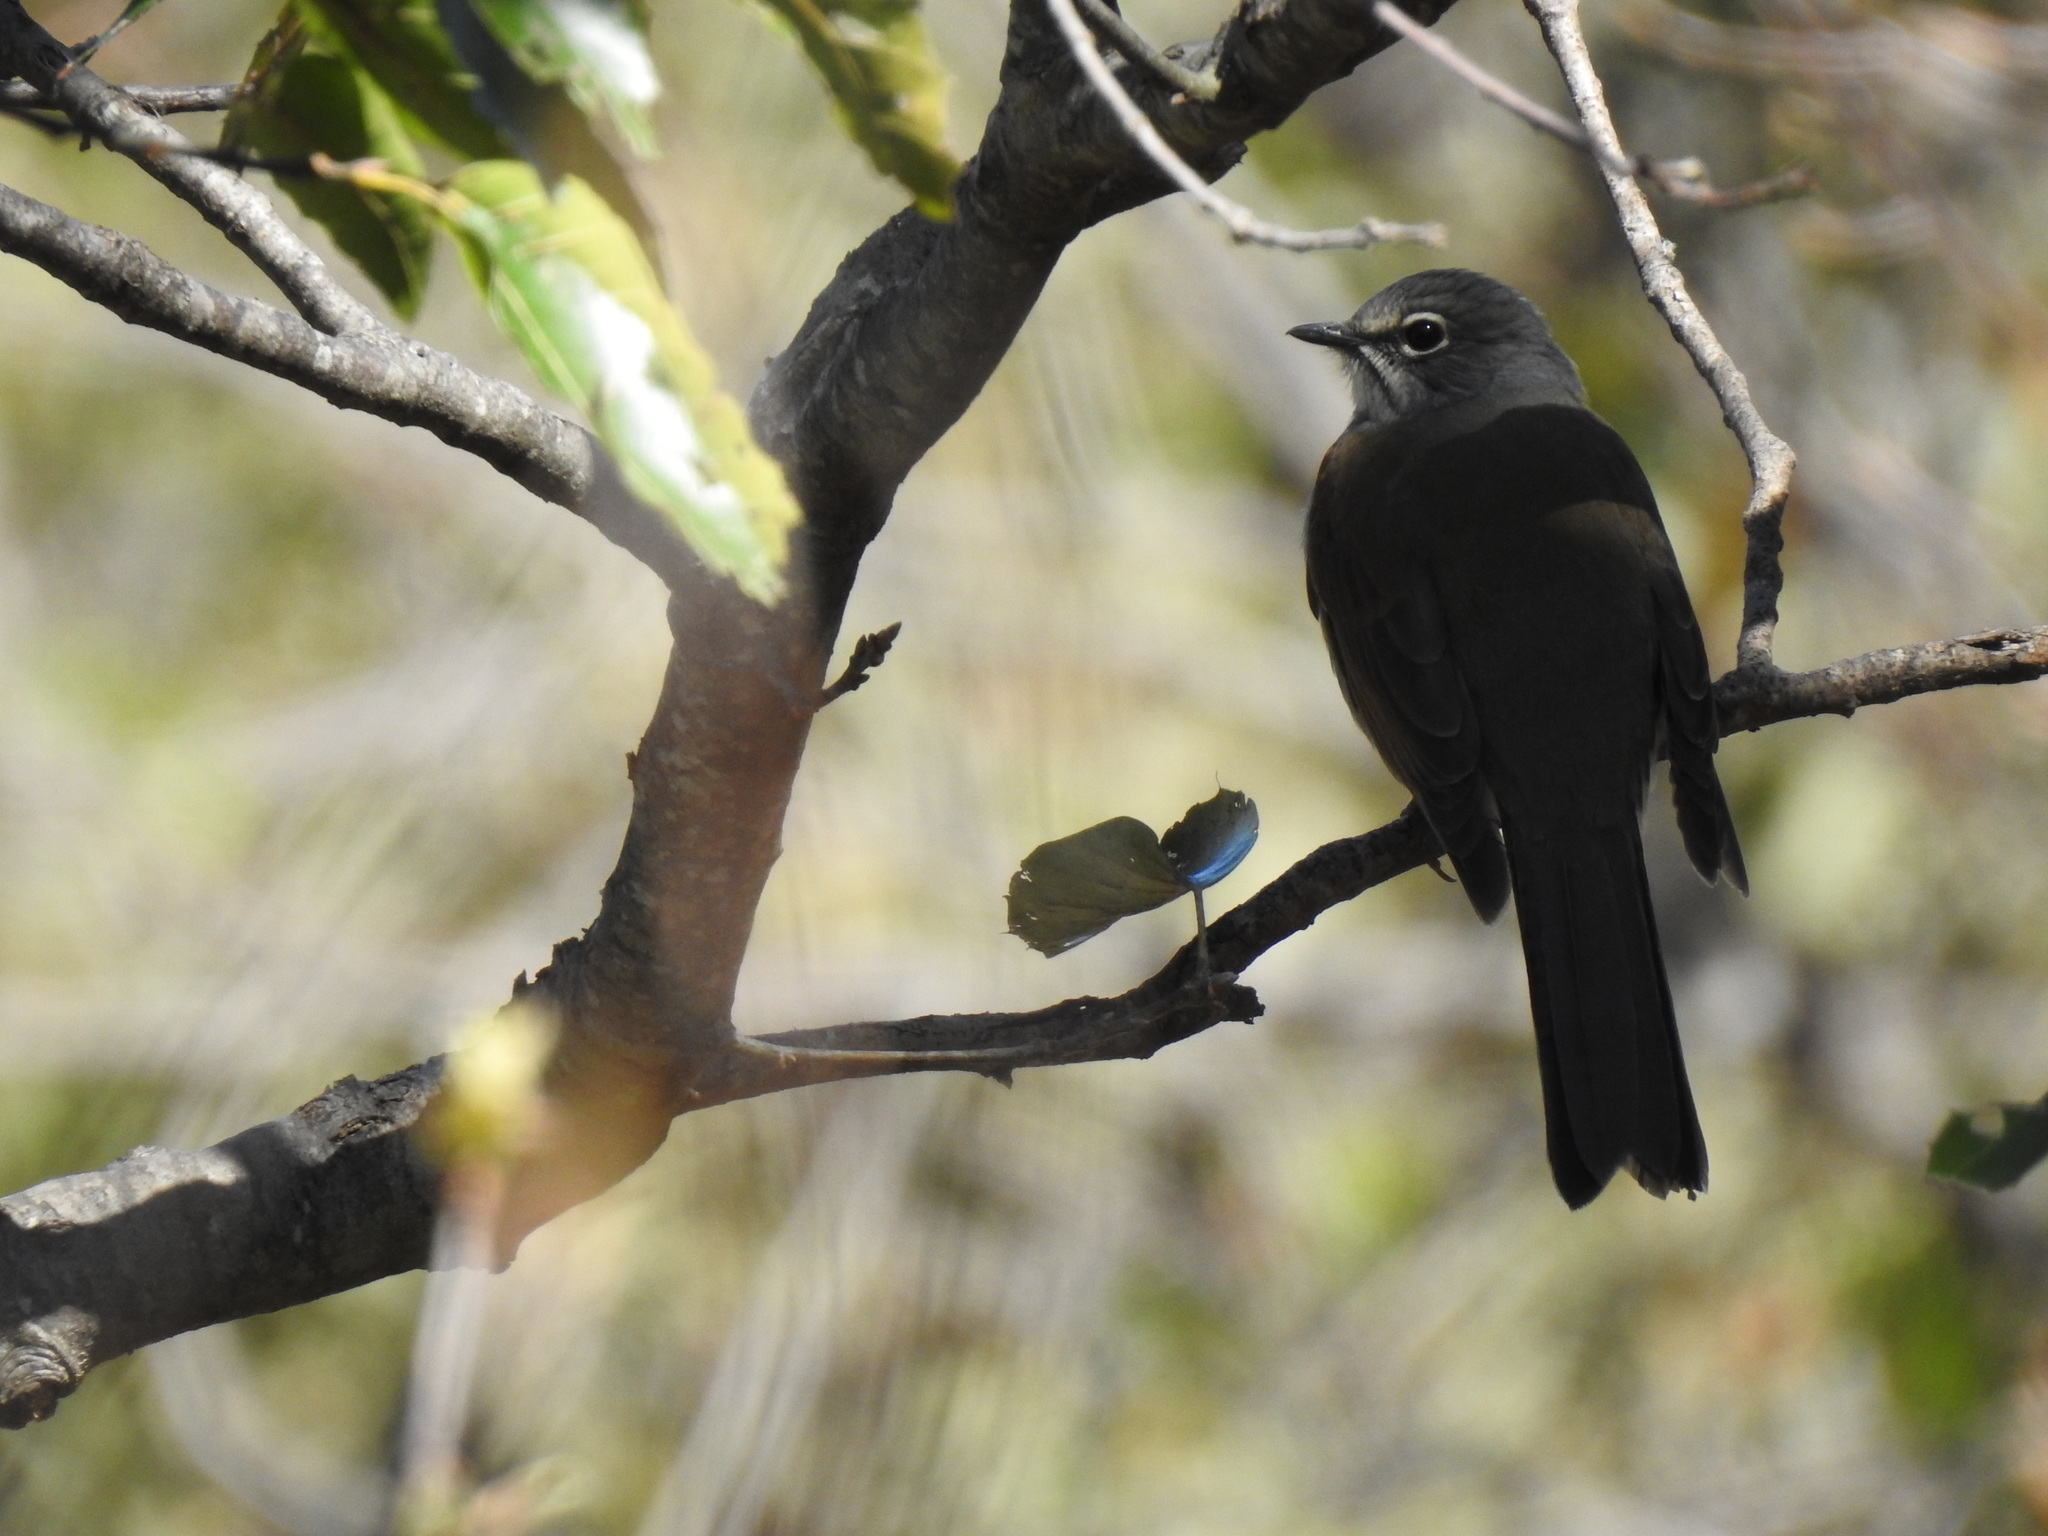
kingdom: Animalia
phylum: Chordata
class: Aves
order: Passeriformes
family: Turdidae
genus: Myadestes
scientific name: Myadestes occidentalis
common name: Brown-backed solitaire
